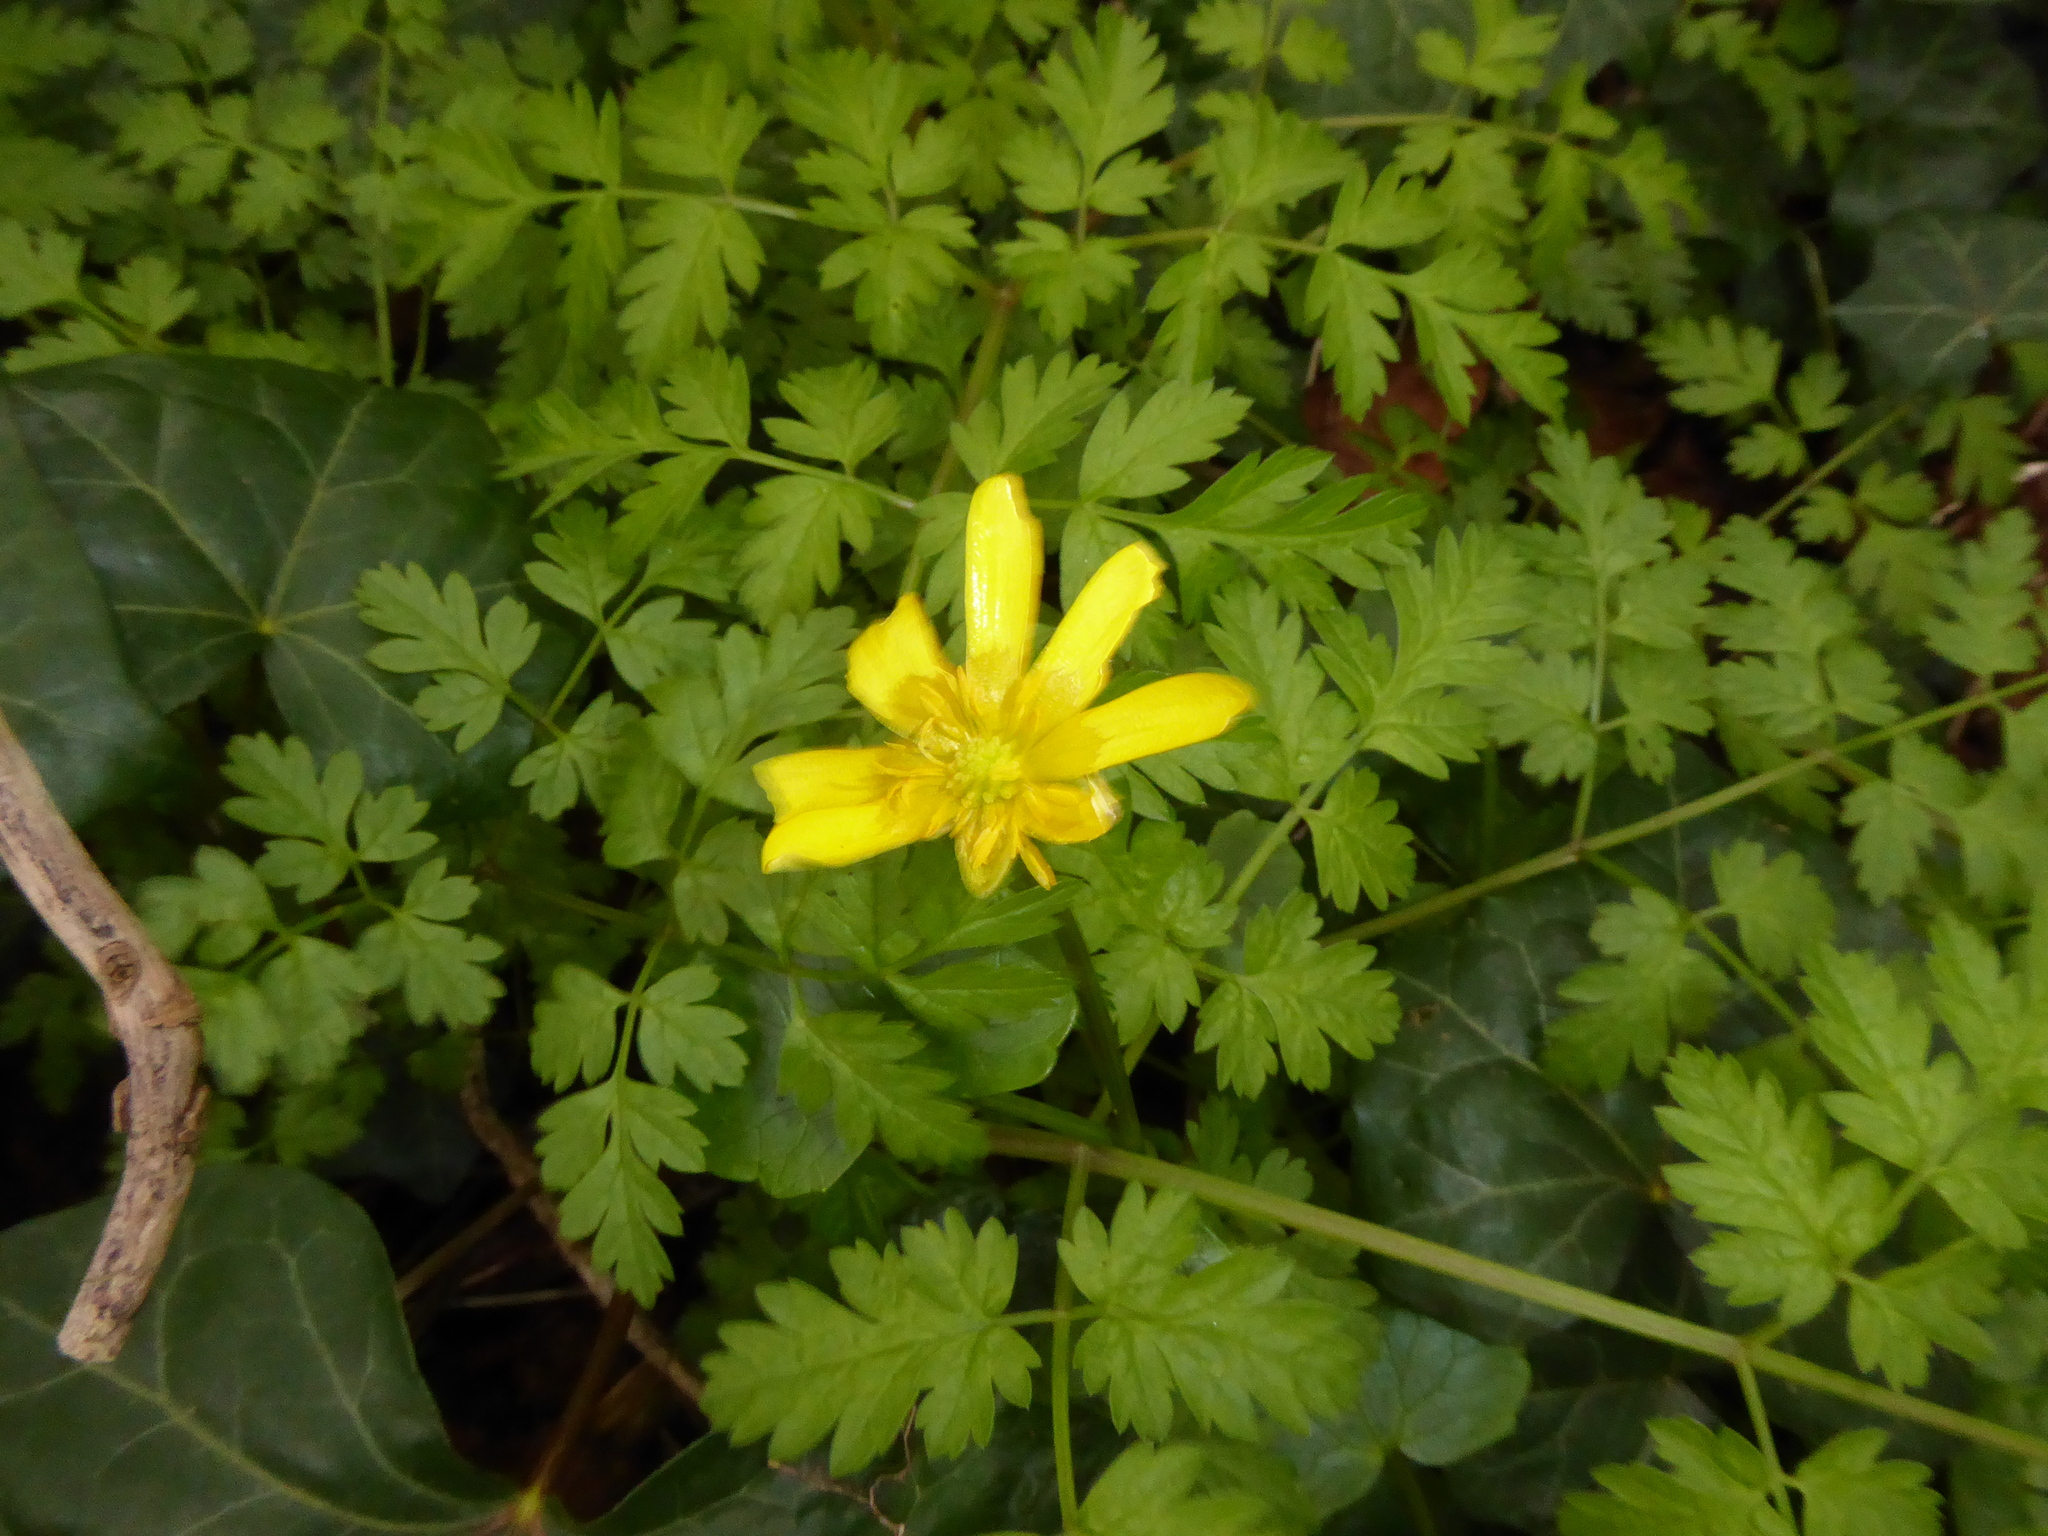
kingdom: Plantae
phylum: Tracheophyta
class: Magnoliopsida
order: Ranunculales
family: Ranunculaceae
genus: Ficaria
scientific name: Ficaria verna
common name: Lesser celandine
